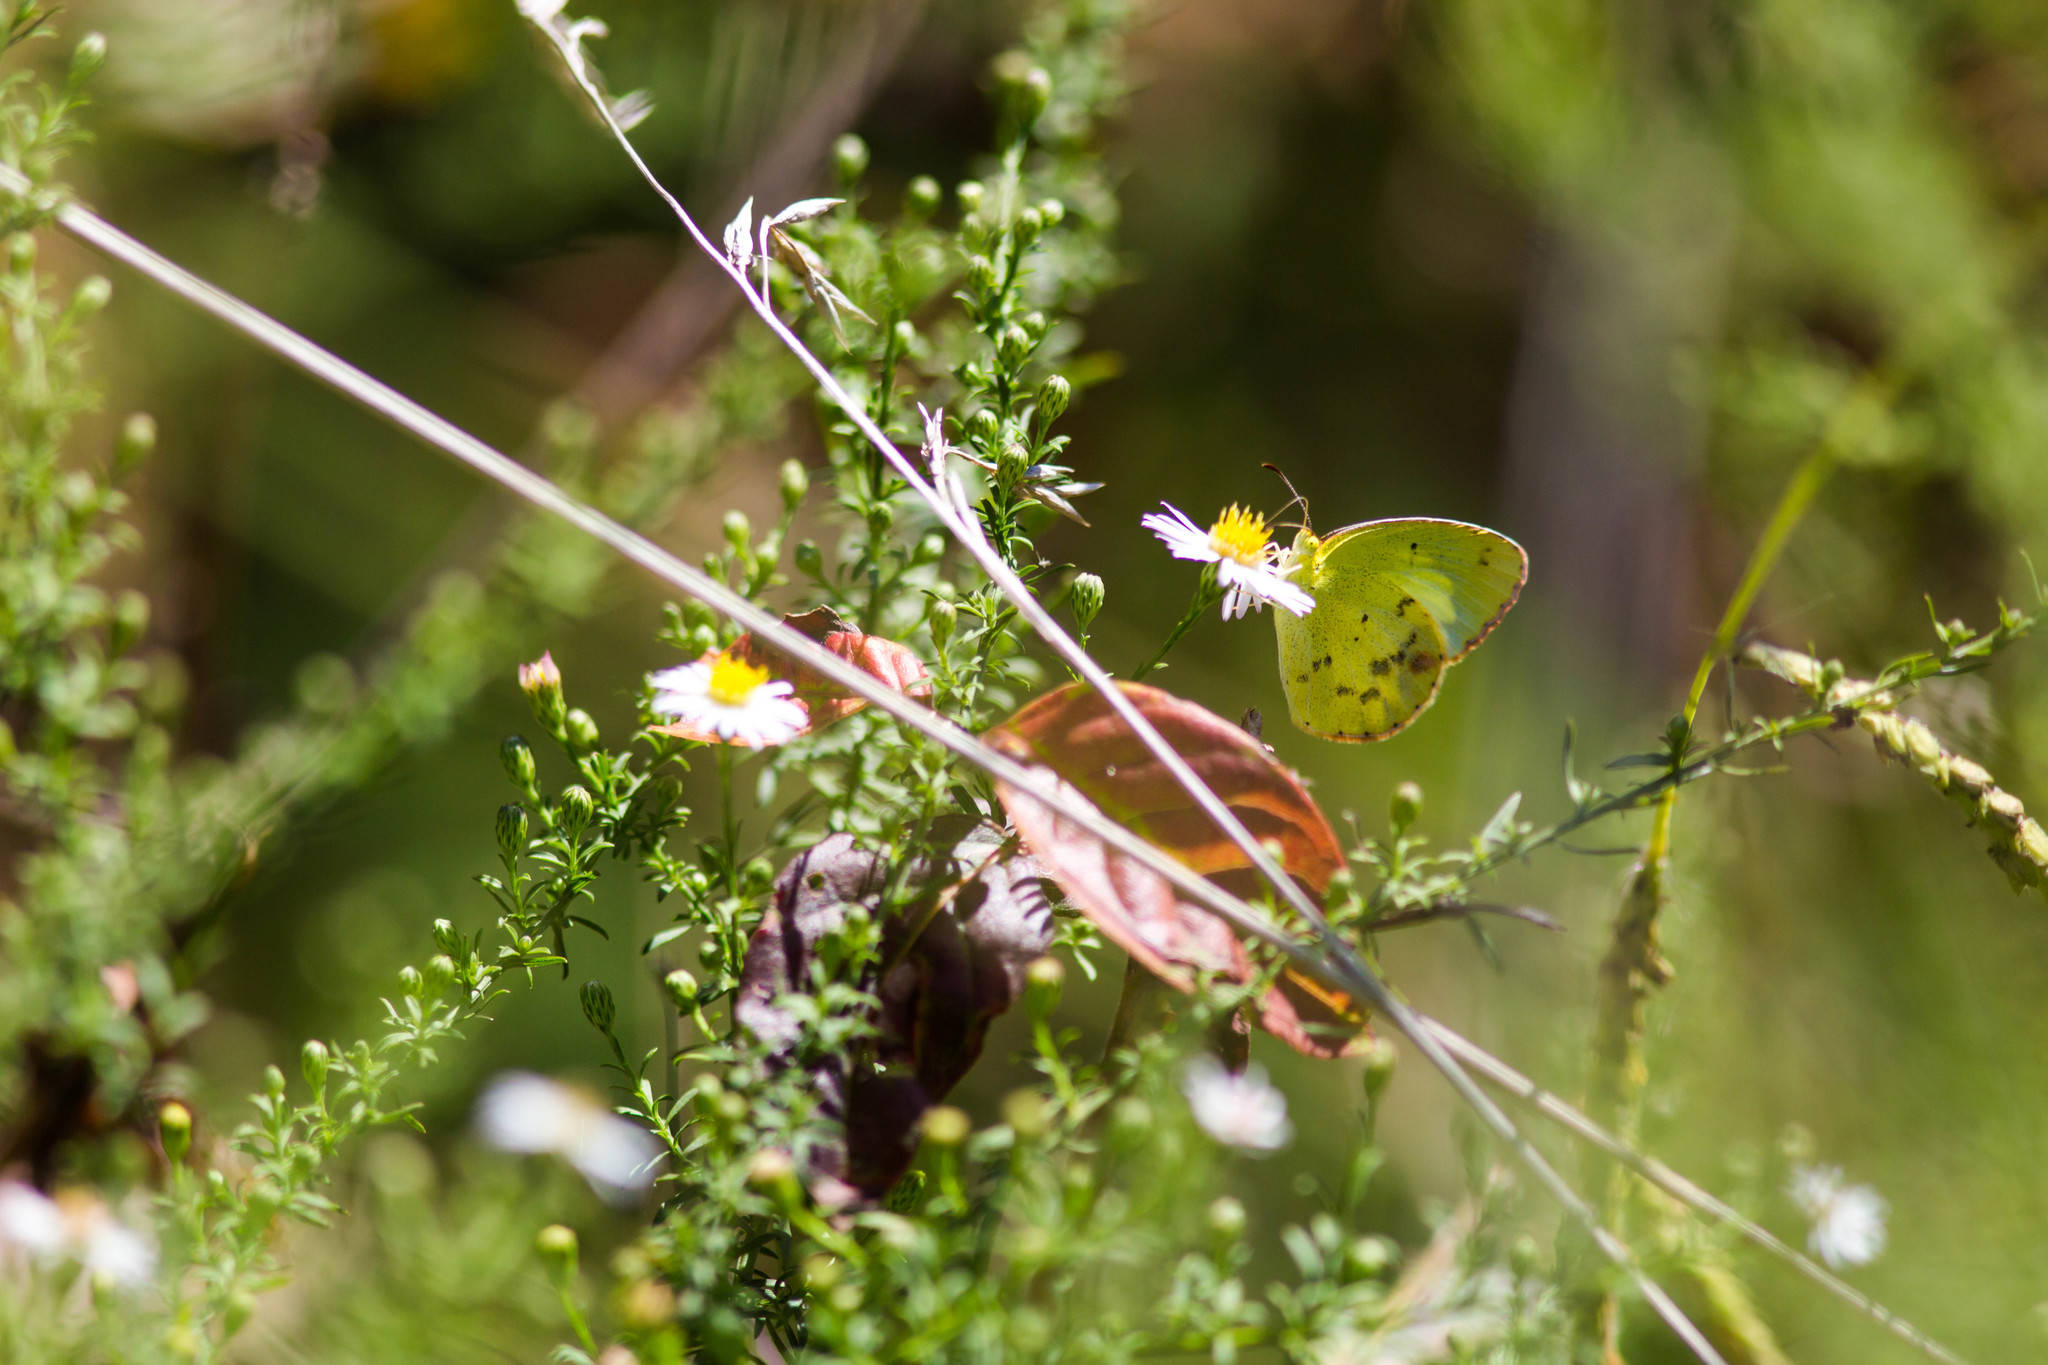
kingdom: Animalia
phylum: Arthropoda
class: Insecta
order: Lepidoptera
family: Pieridae
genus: Pyrisitia
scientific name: Pyrisitia lisa
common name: Little yellow
